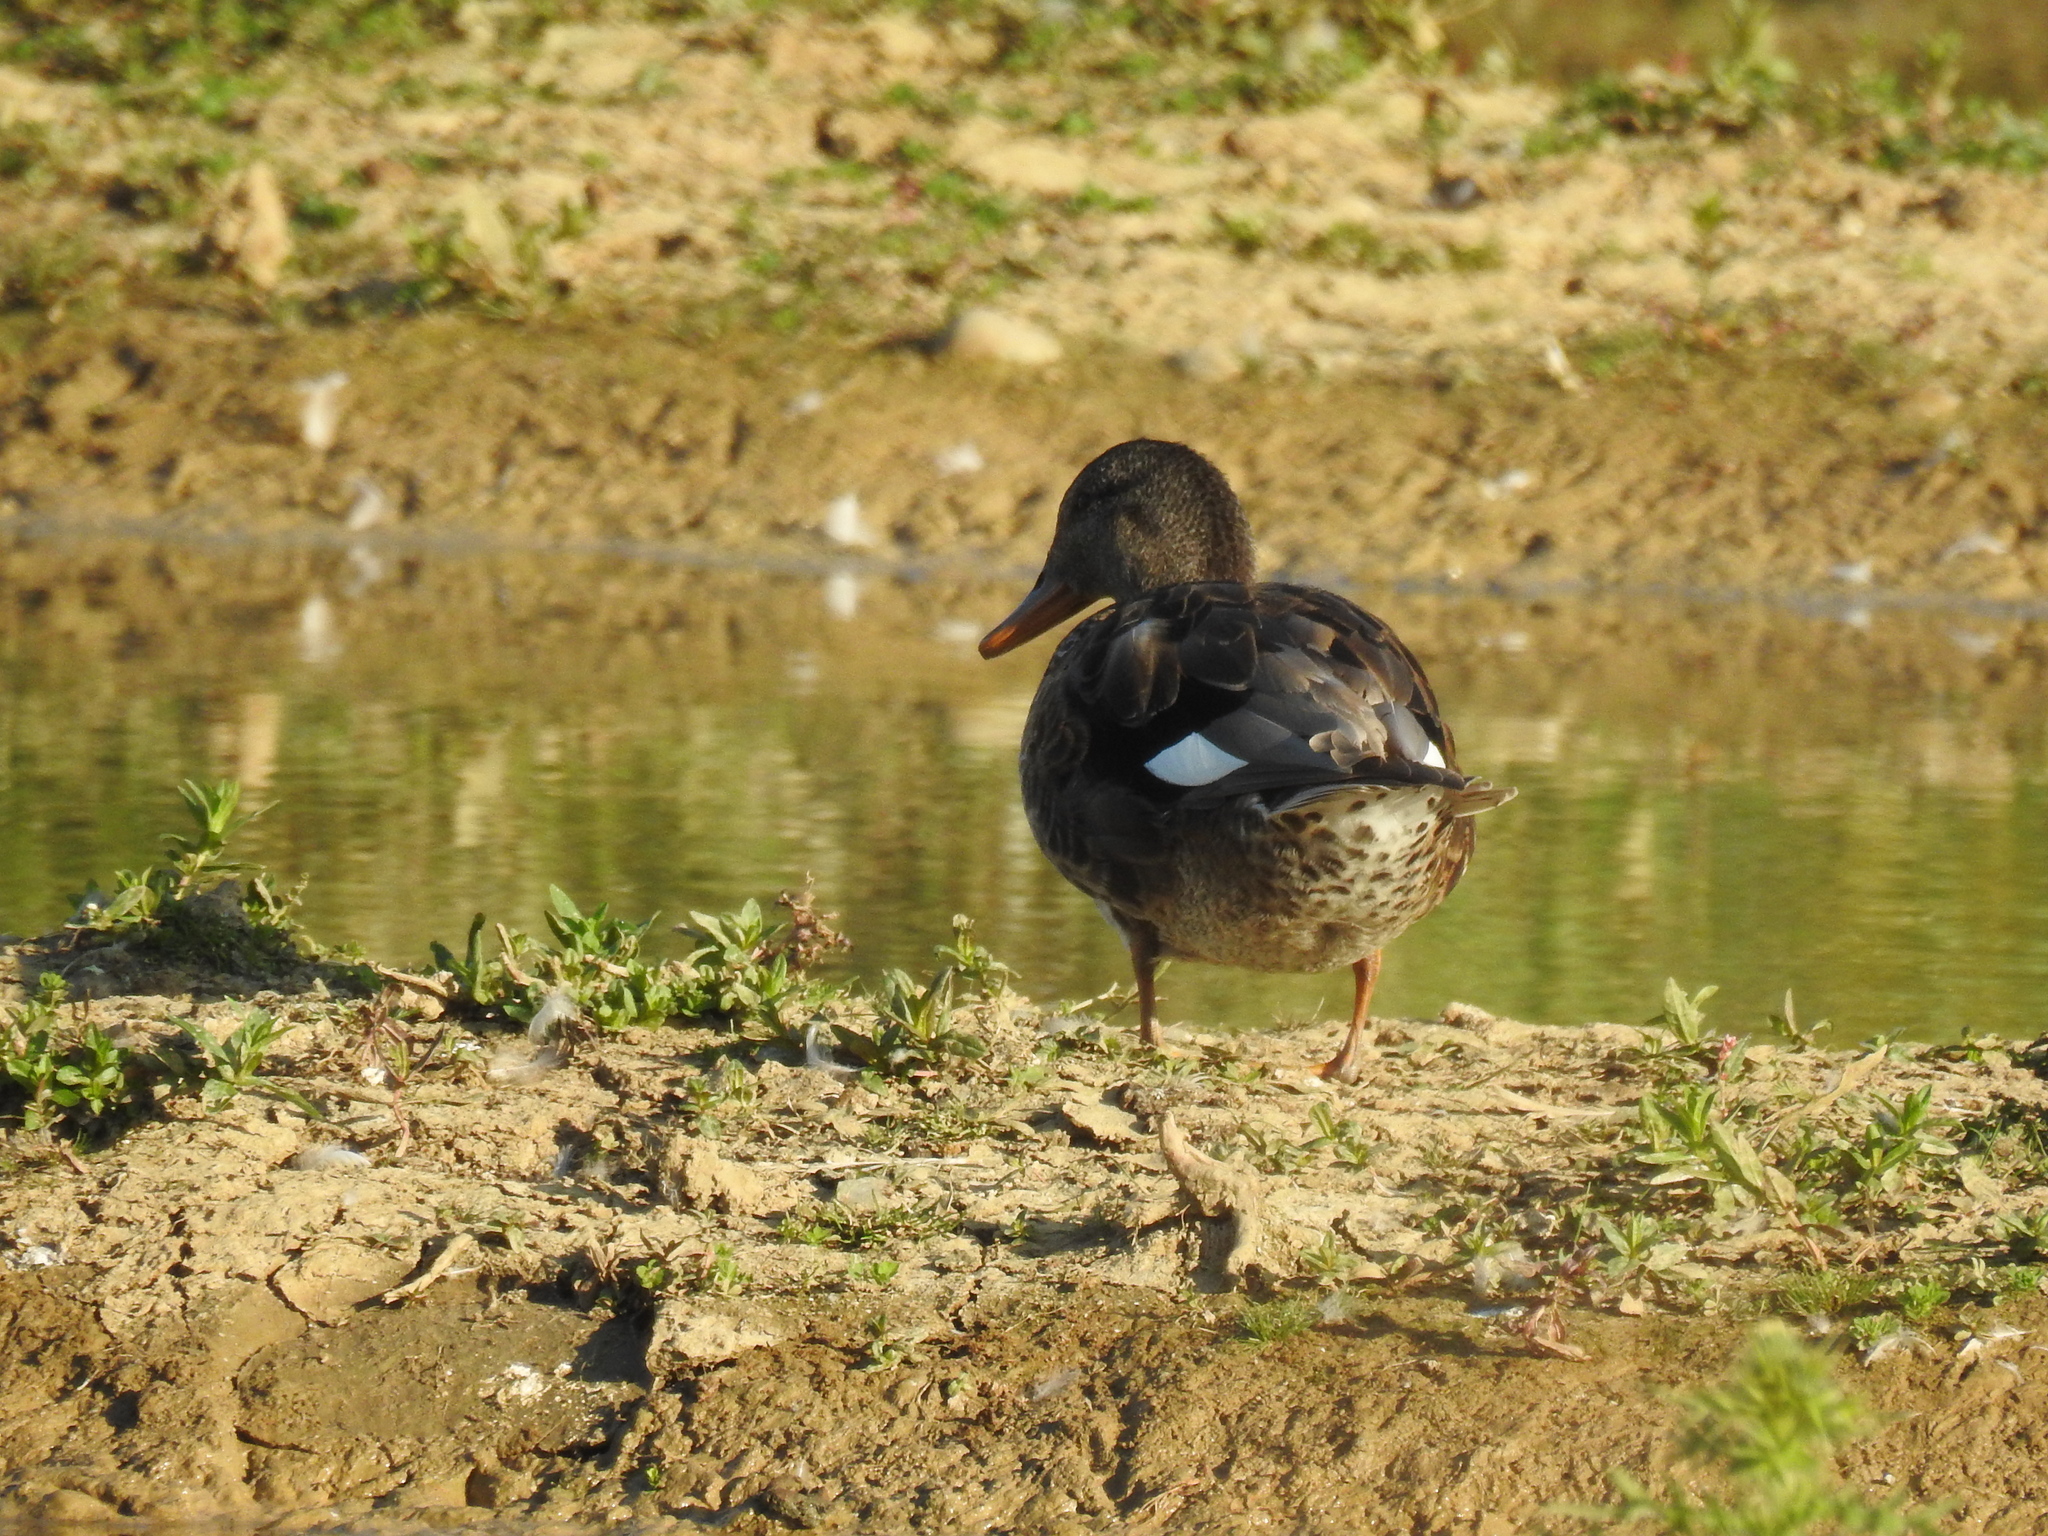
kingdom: Animalia
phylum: Chordata
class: Aves
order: Anseriformes
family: Anatidae
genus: Mareca
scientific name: Mareca strepera
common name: Gadwall
